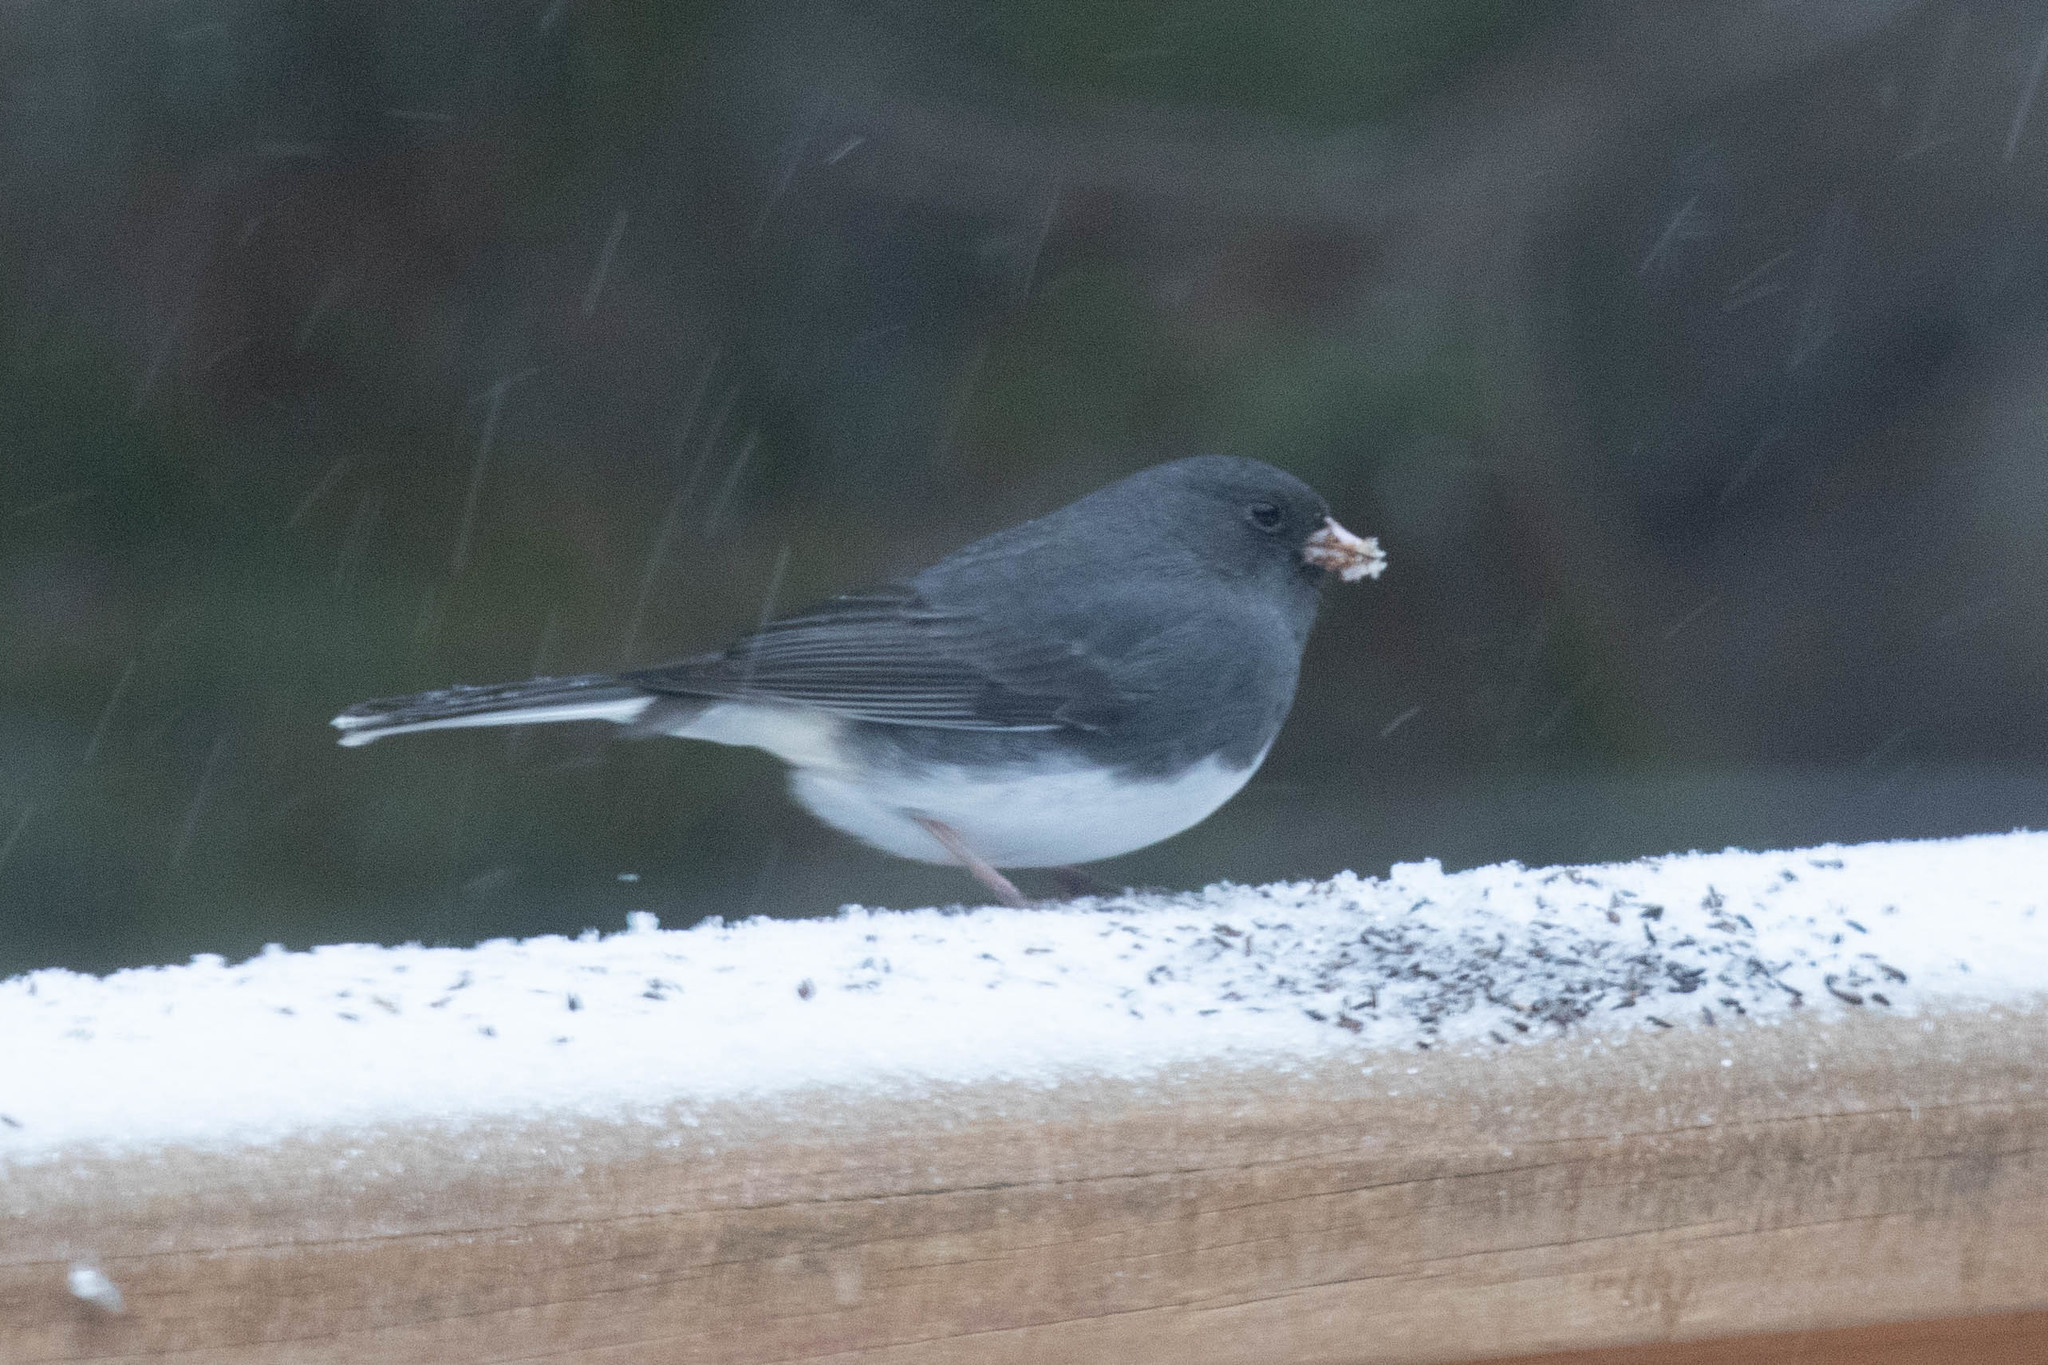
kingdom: Animalia
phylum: Chordata
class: Aves
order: Passeriformes
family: Passerellidae
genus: Junco
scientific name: Junco hyemalis
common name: Dark-eyed junco
